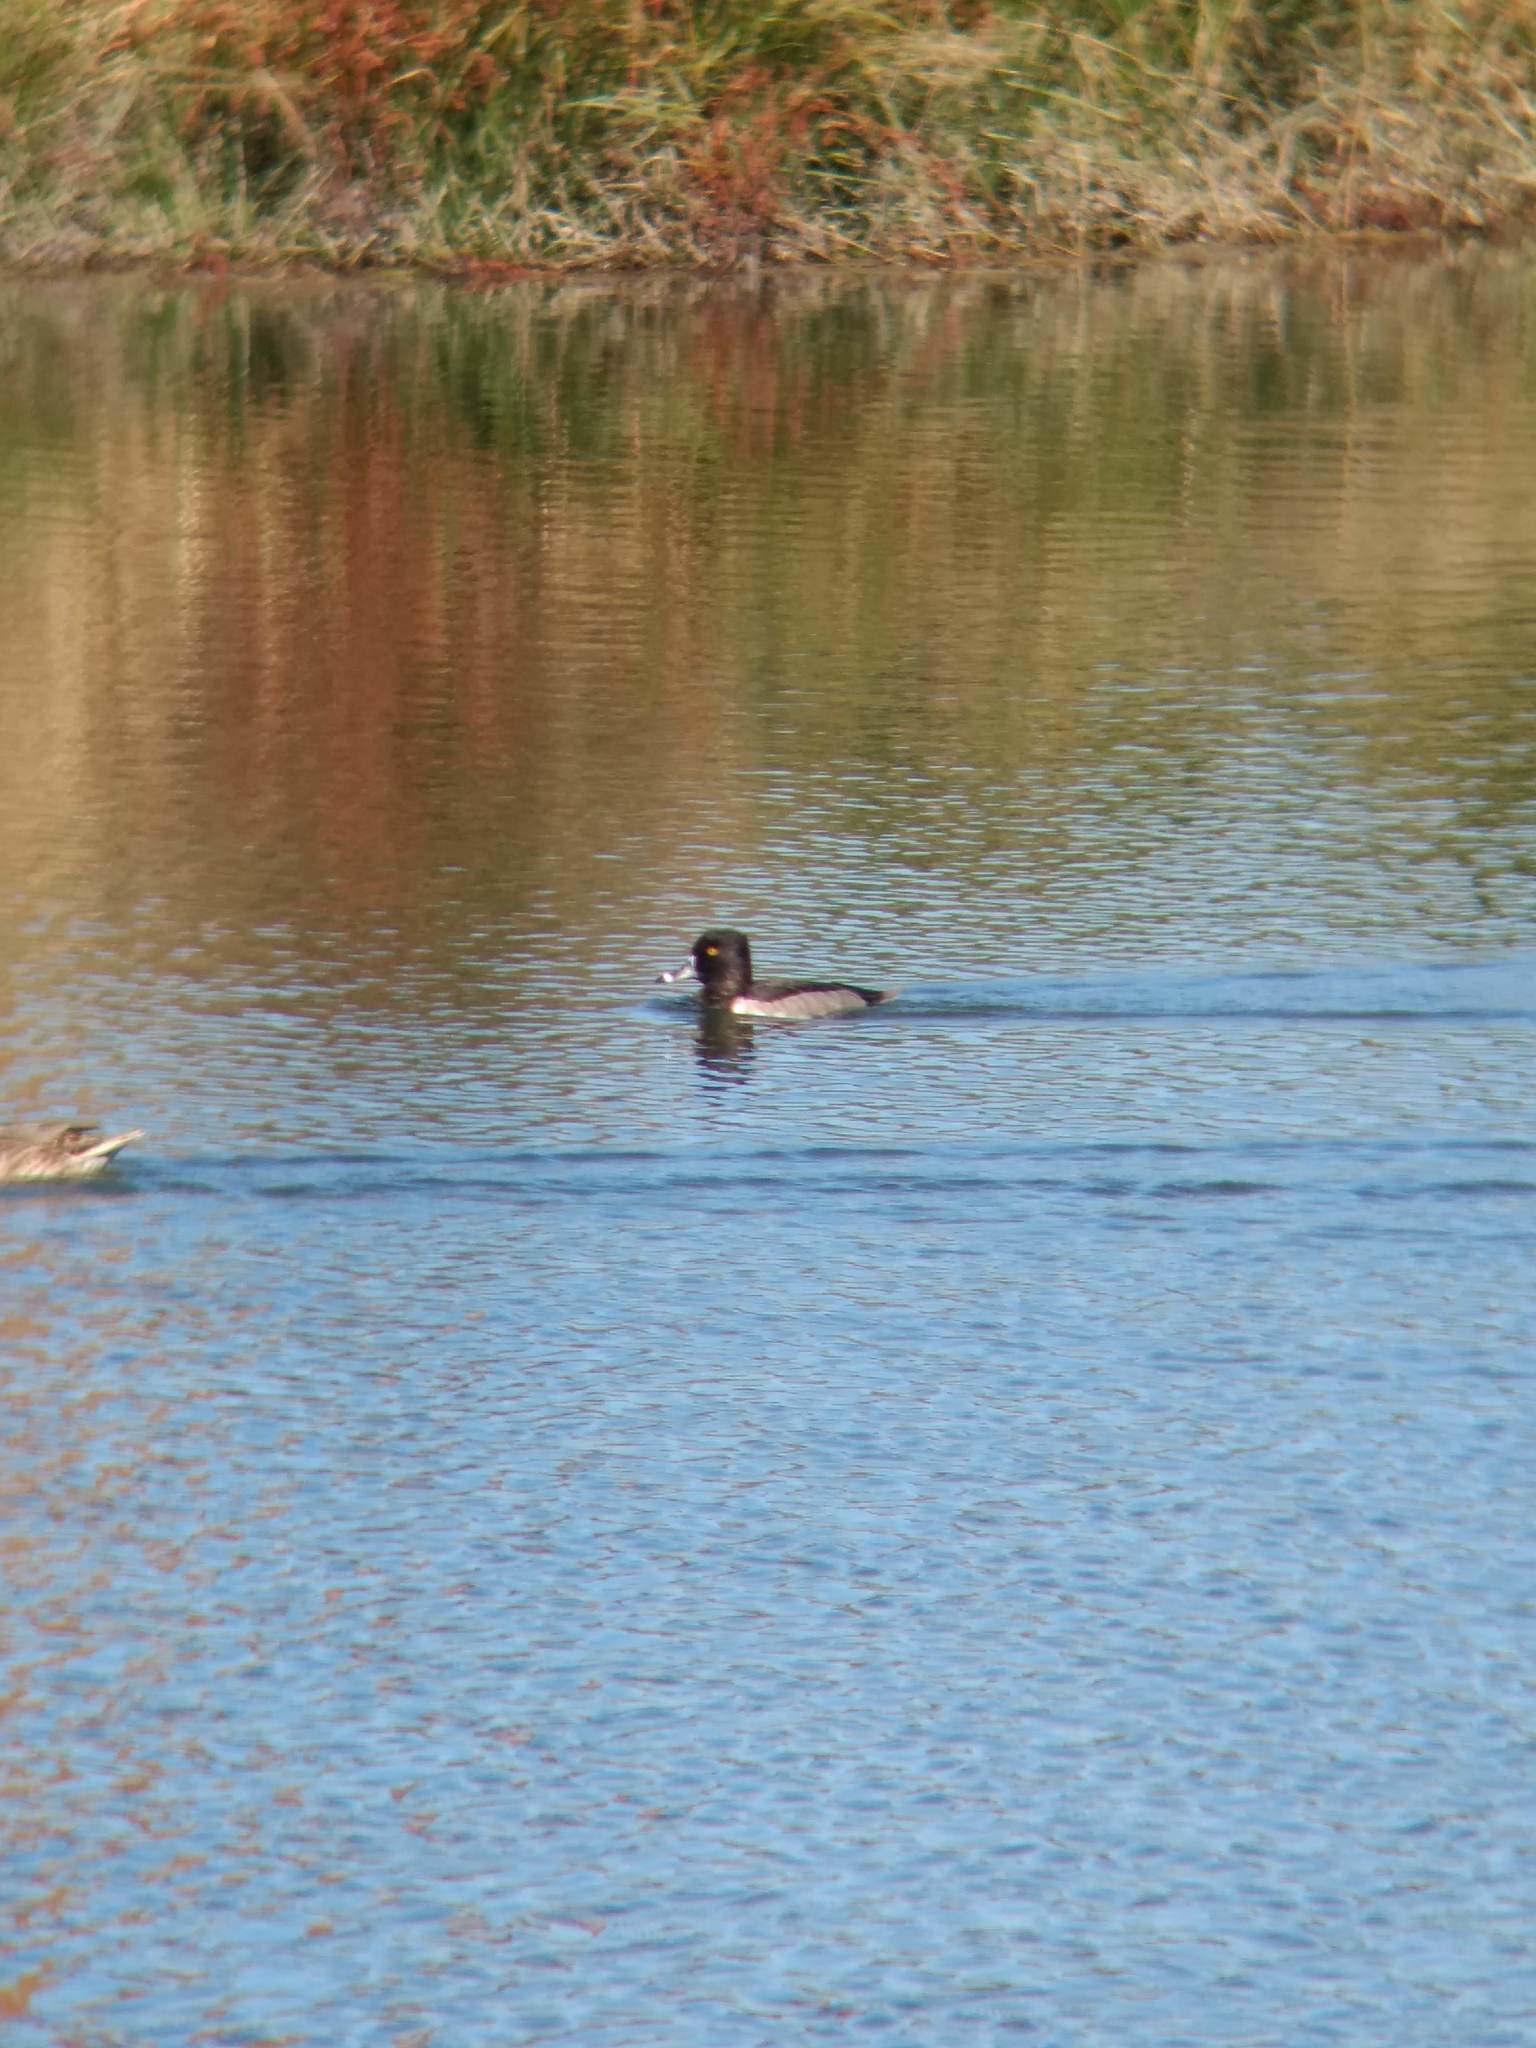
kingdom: Animalia
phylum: Chordata
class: Aves
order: Anseriformes
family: Anatidae
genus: Aythya
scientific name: Aythya collaris
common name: Ring-necked duck
